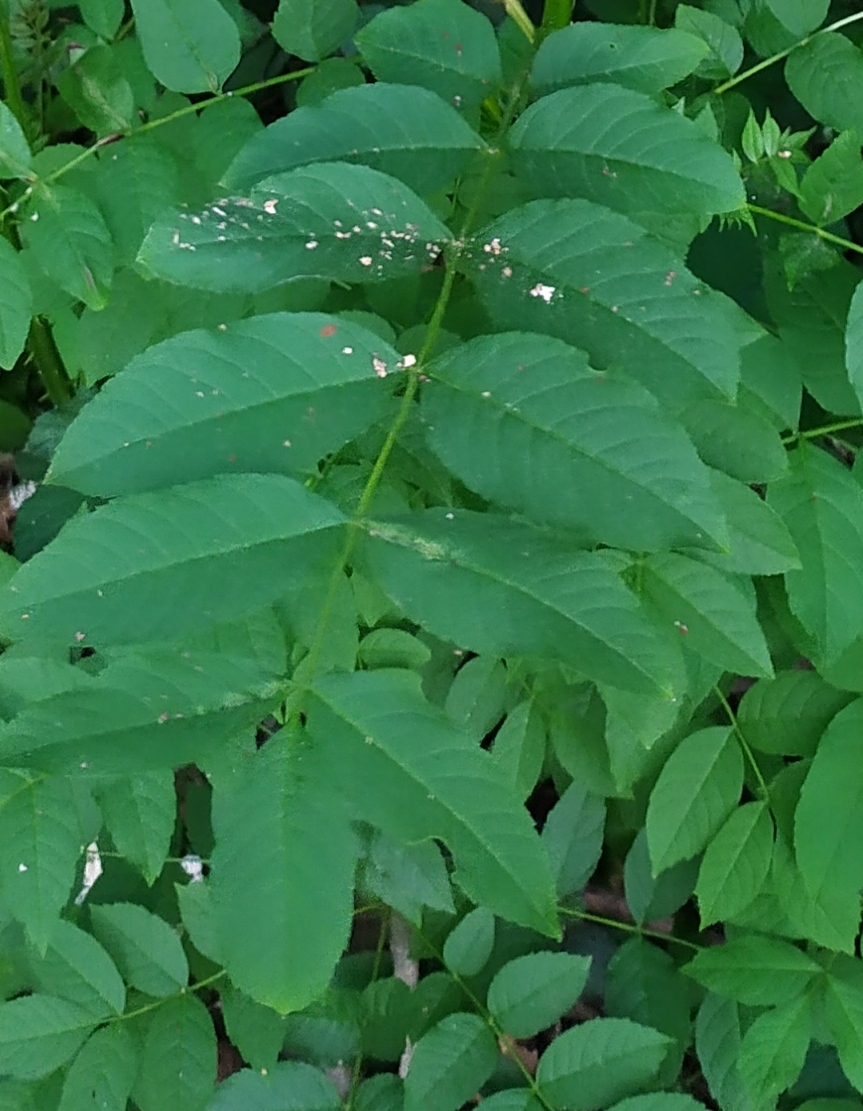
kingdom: Animalia
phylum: Arthropoda
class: Insecta
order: Diptera
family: Cecidomyiidae
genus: Dasineura
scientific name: Dasineura fraxini
